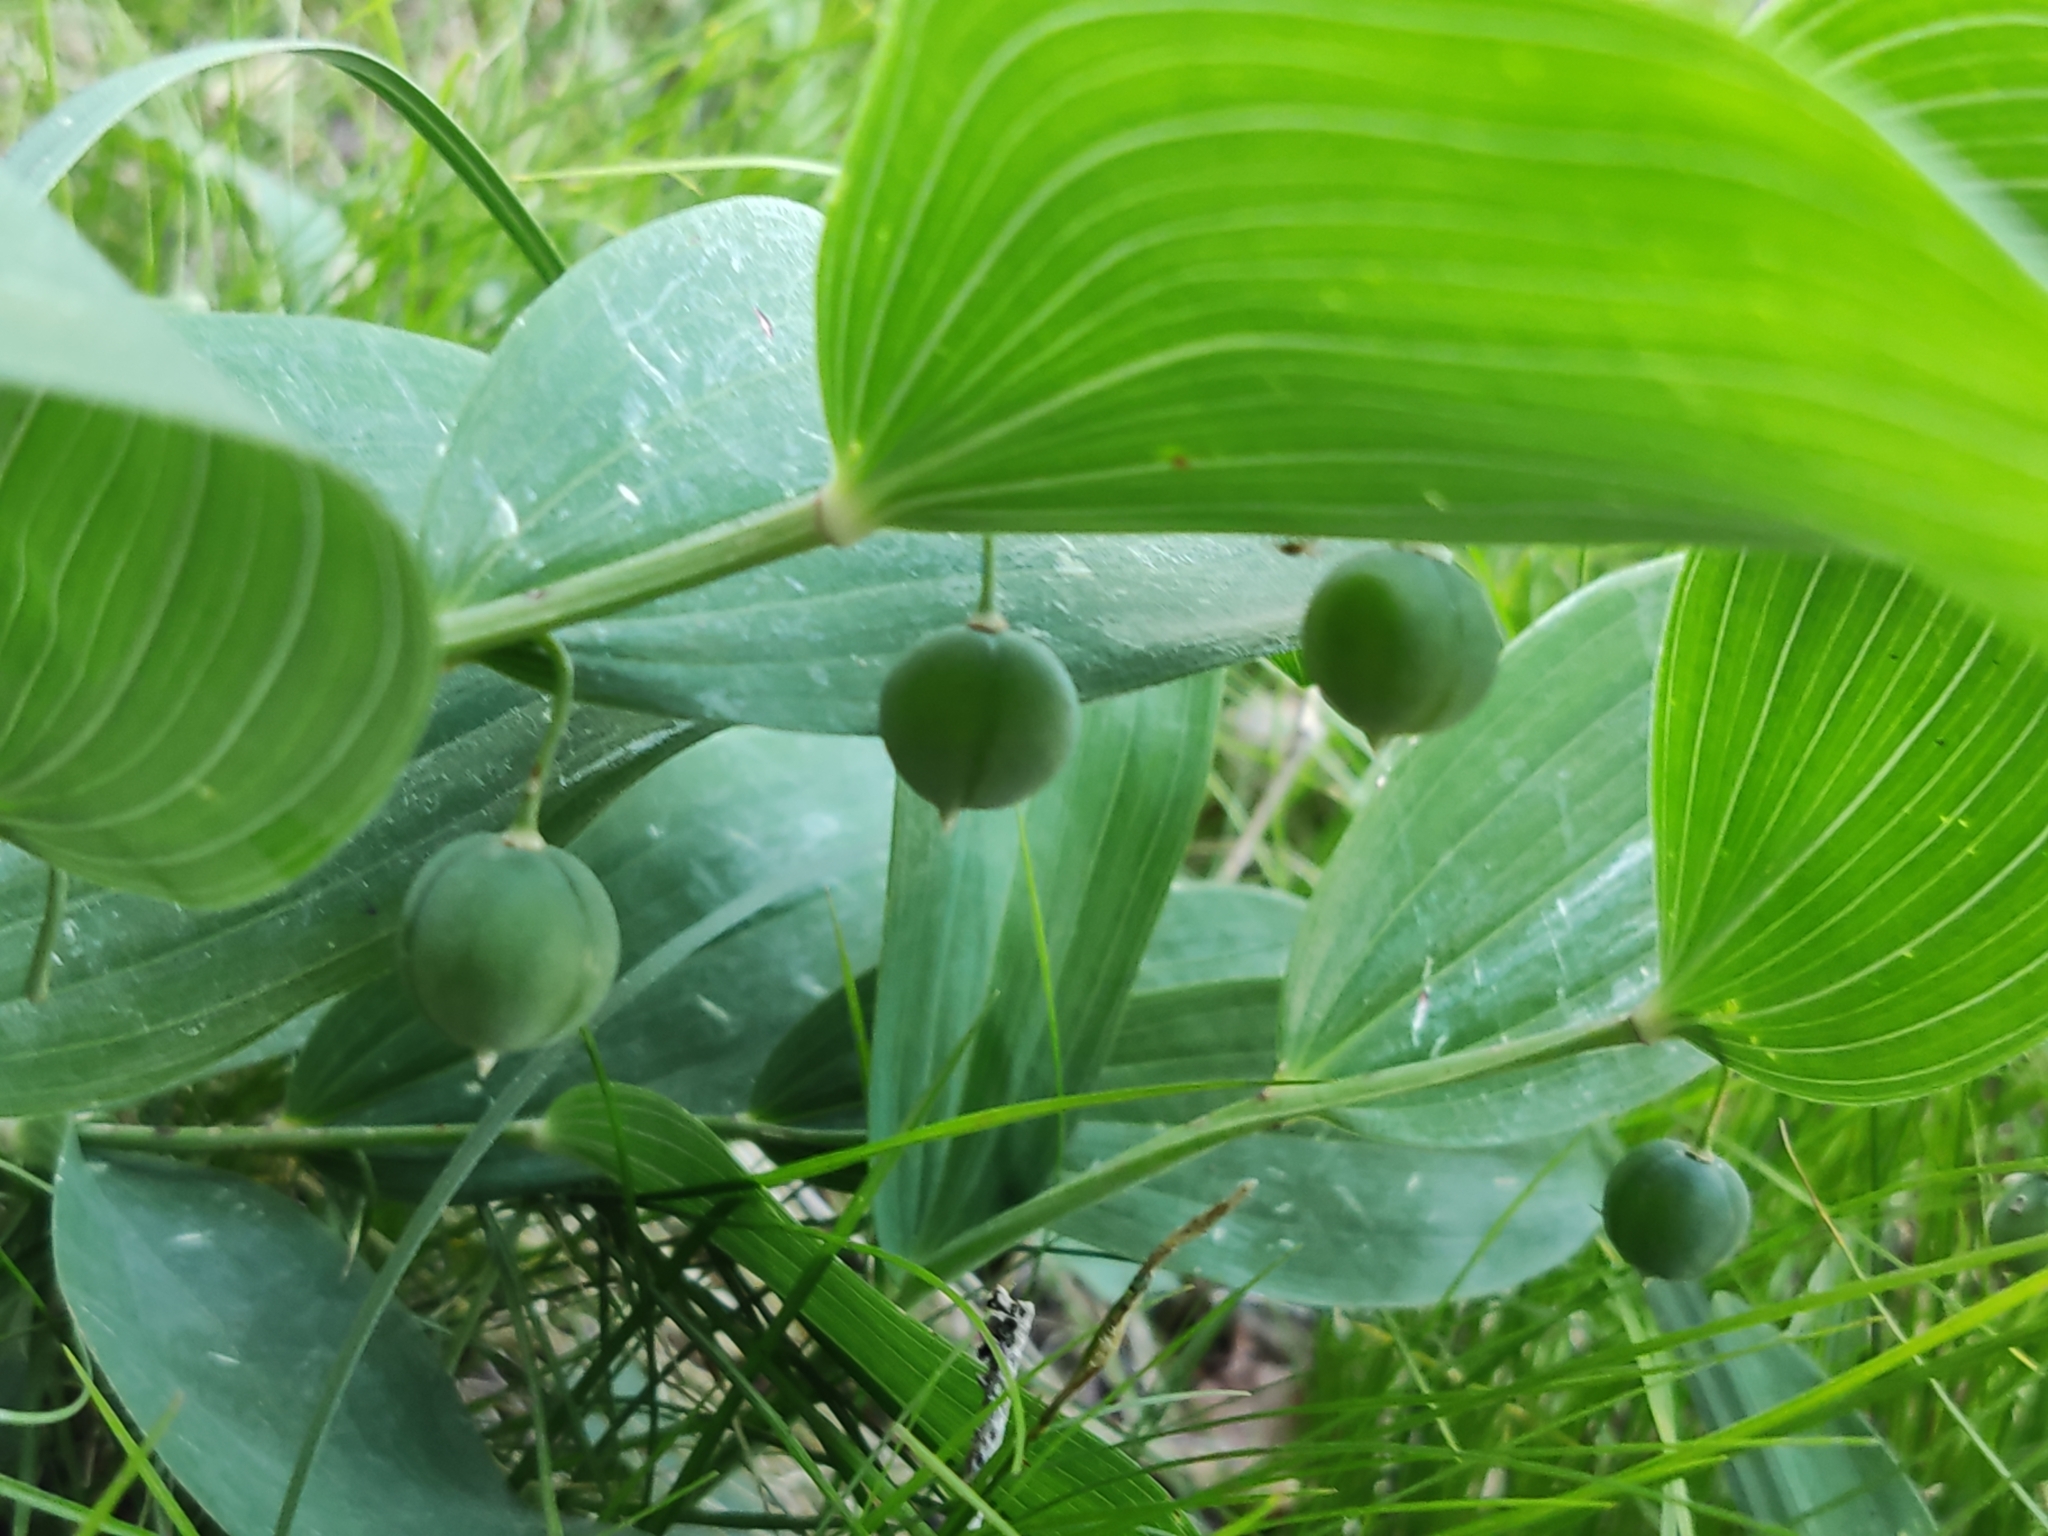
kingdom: Plantae
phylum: Tracheophyta
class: Liliopsida
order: Asparagales
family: Asparagaceae
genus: Polygonatum
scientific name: Polygonatum odoratum
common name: Angular solomon's-seal
